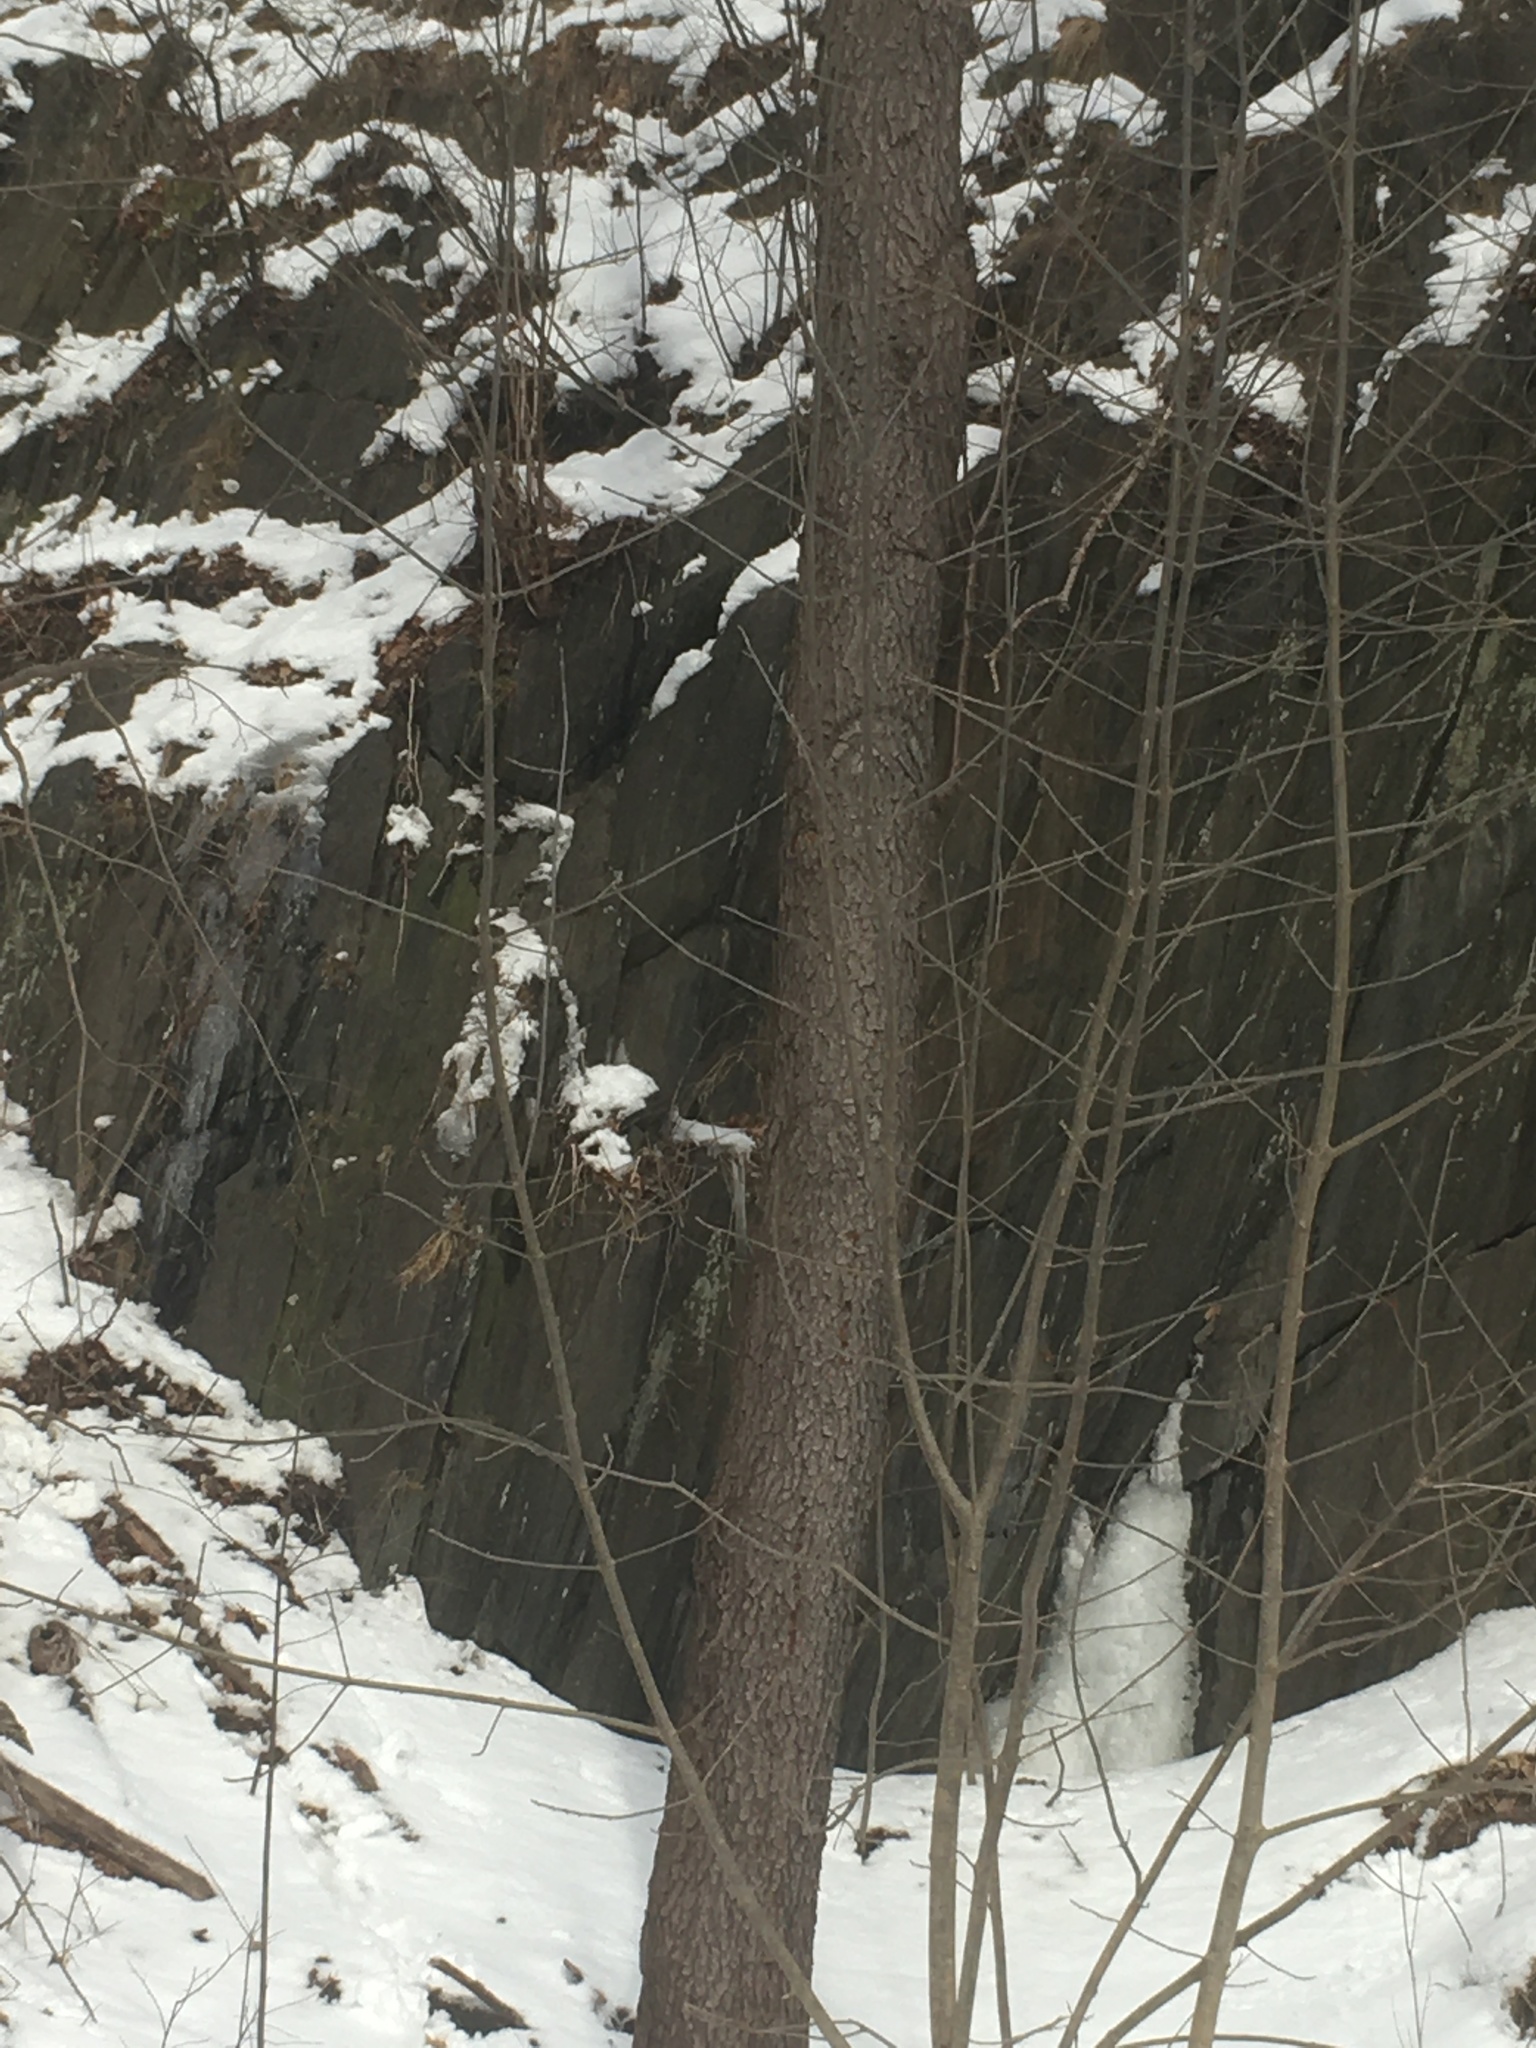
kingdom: Plantae
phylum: Tracheophyta
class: Magnoliopsida
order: Rosales
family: Rosaceae
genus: Prunus
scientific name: Prunus serotina
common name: Black cherry
